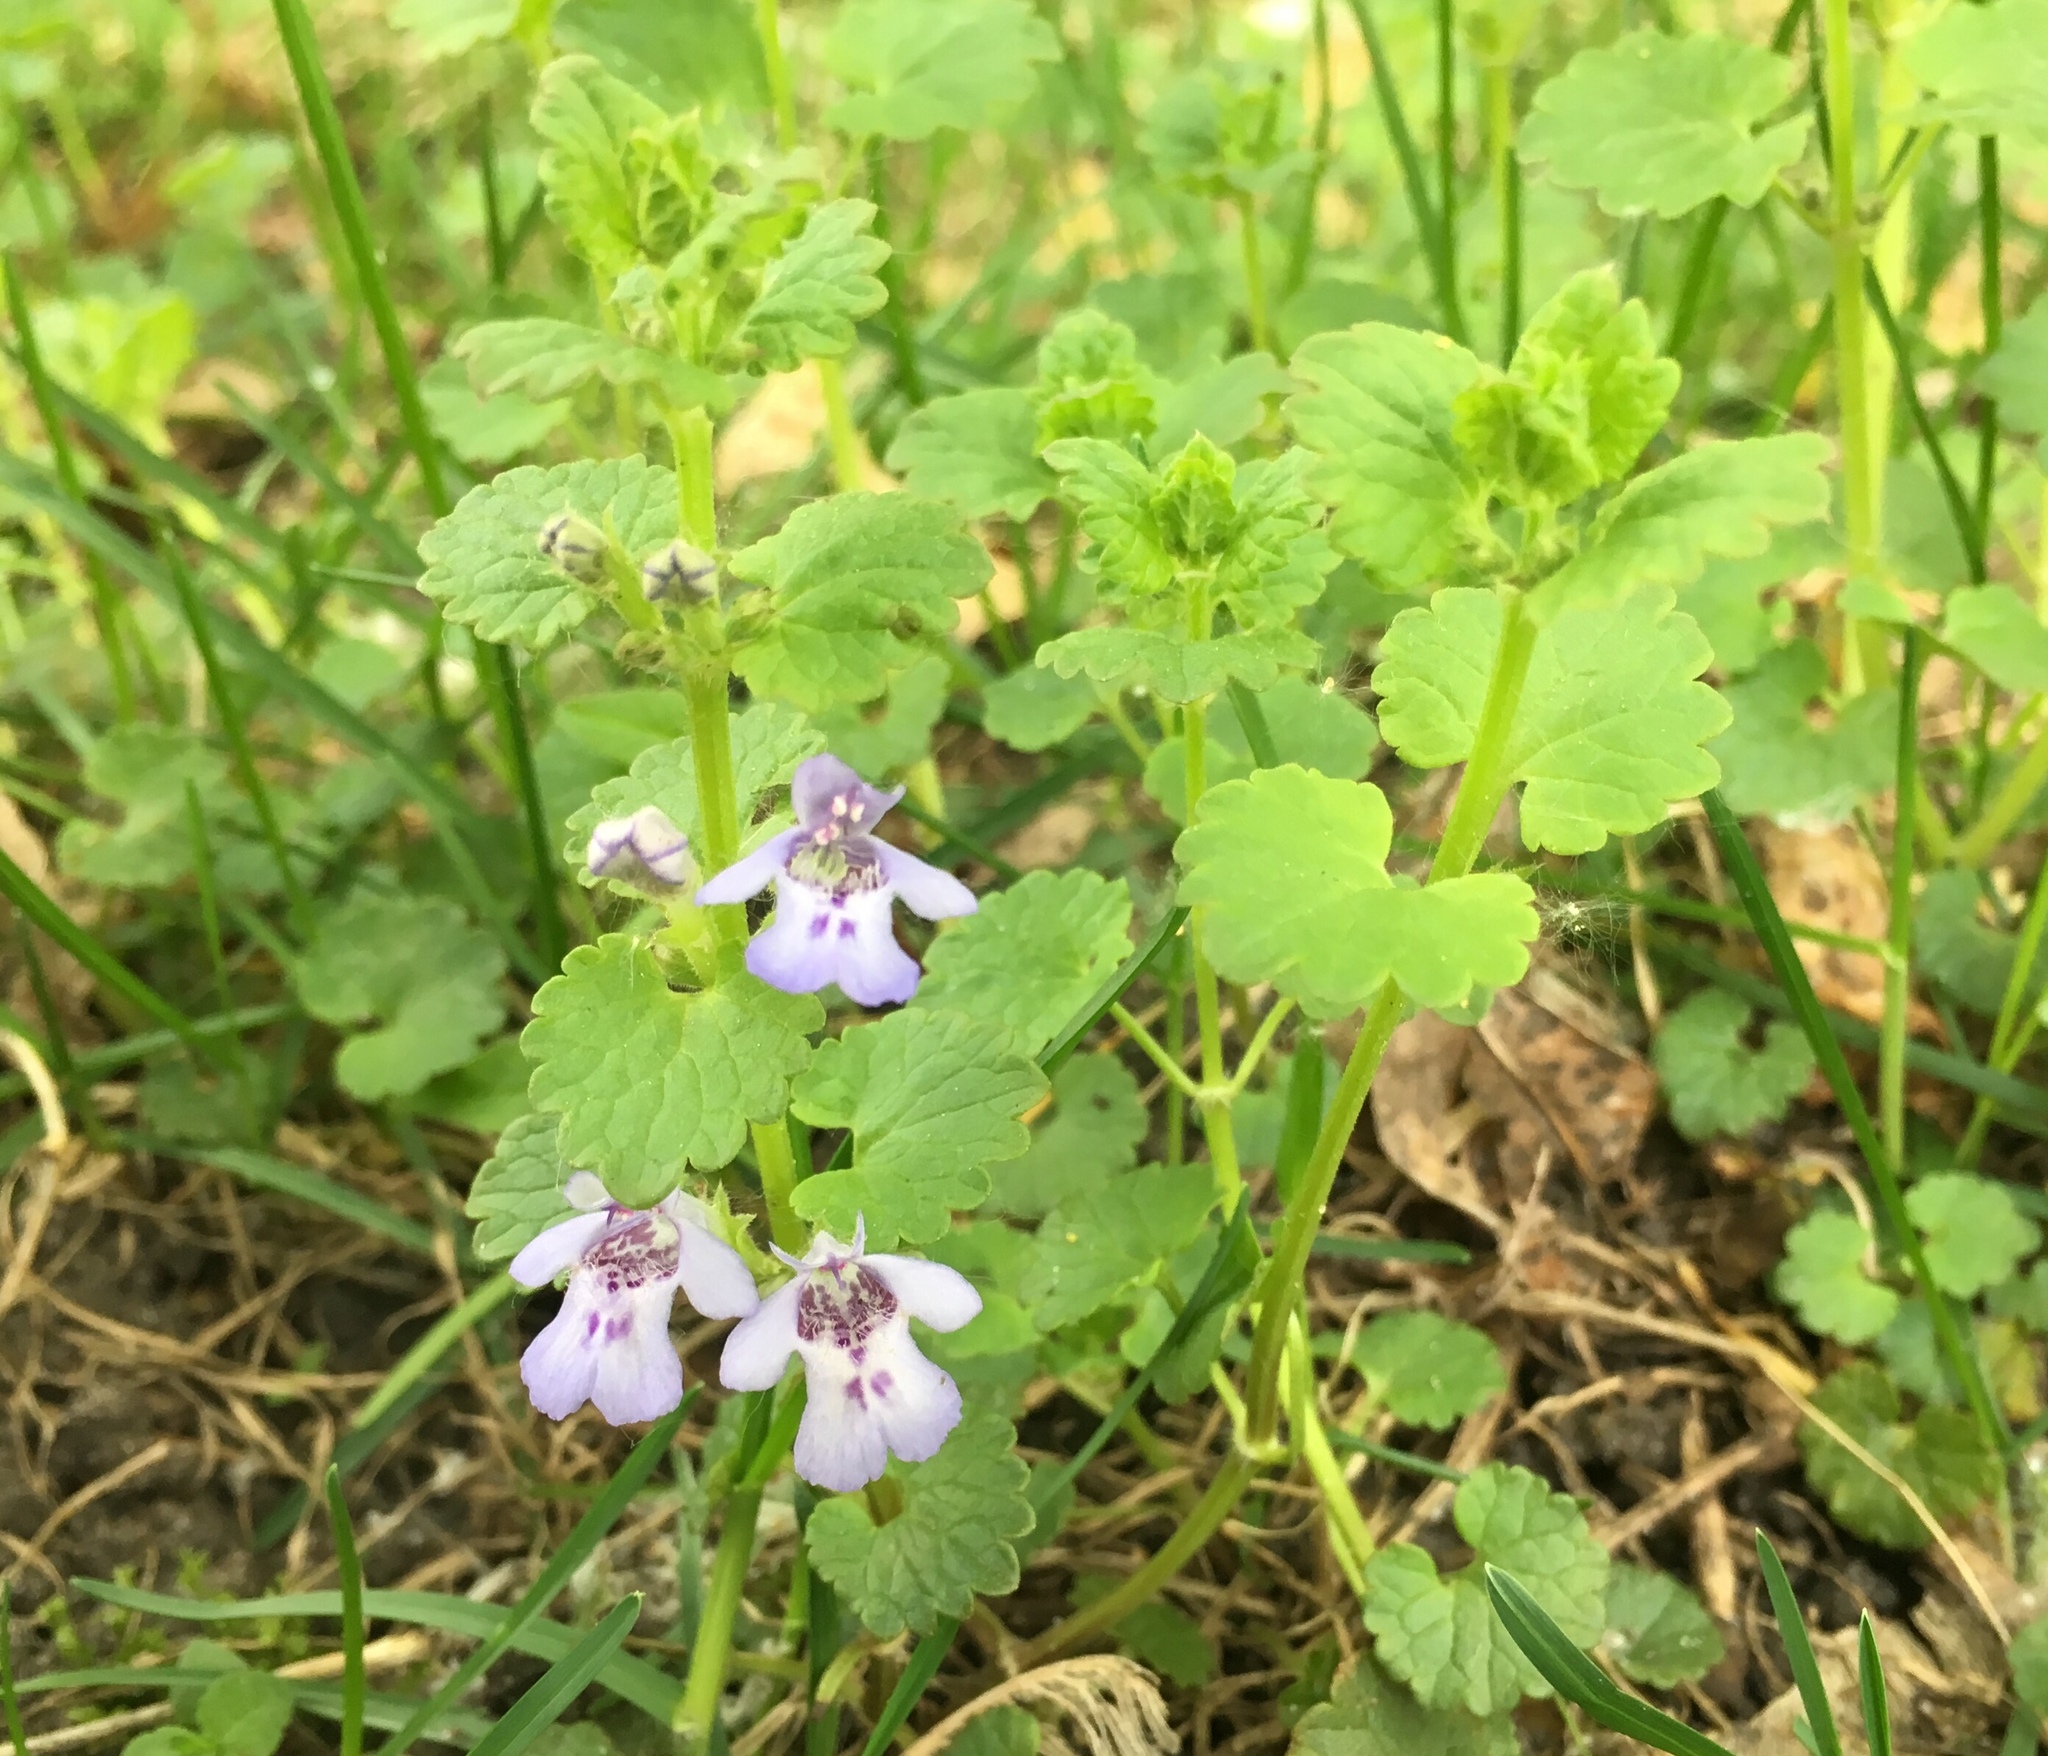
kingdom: Plantae
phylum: Tracheophyta
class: Magnoliopsida
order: Lamiales
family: Lamiaceae
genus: Glechoma
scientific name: Glechoma hederacea
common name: Ground ivy
